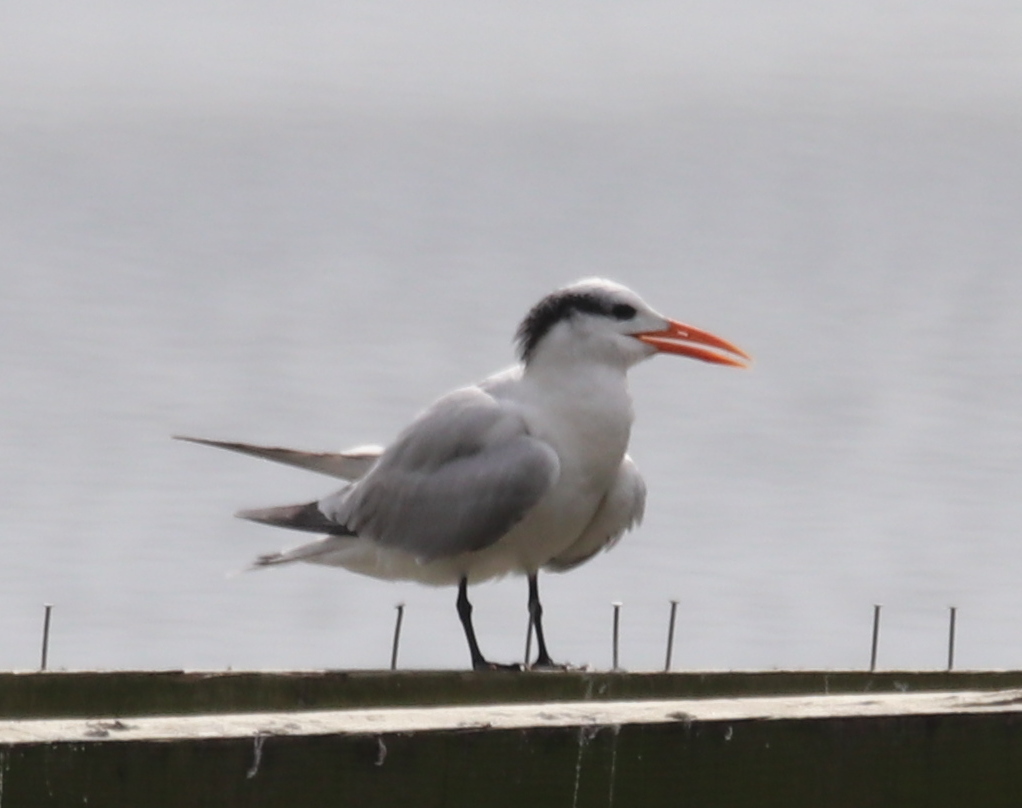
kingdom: Animalia
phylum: Chordata
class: Aves
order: Charadriiformes
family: Laridae
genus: Thalasseus
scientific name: Thalasseus maximus
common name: Royal tern
